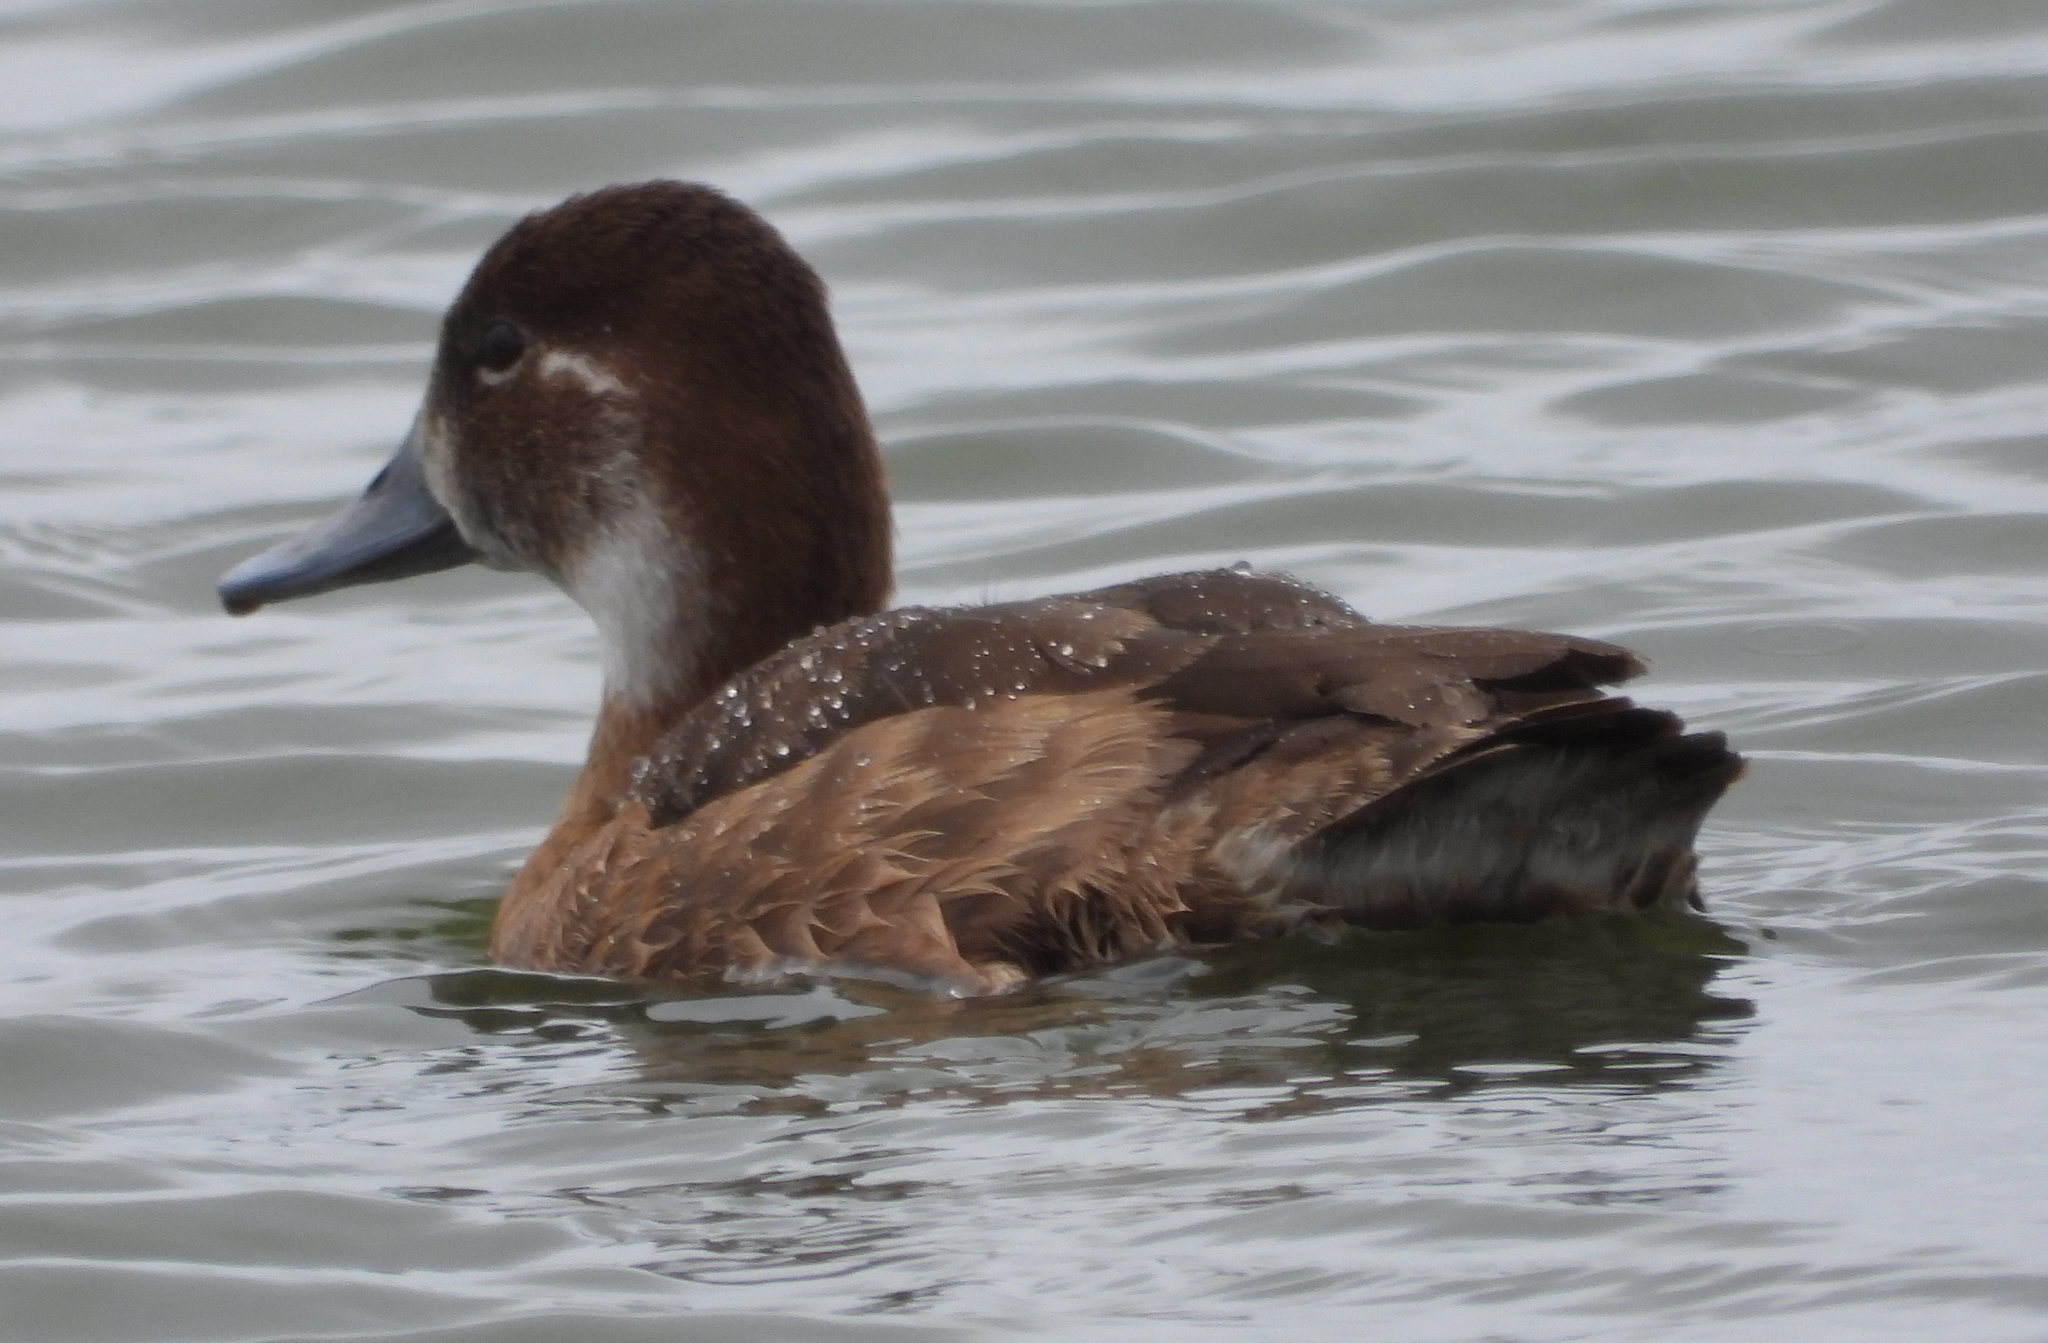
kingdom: Animalia
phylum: Chordata
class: Aves
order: Anseriformes
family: Anatidae
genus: Netta
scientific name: Netta erythrophthalma
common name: Southern pochard
